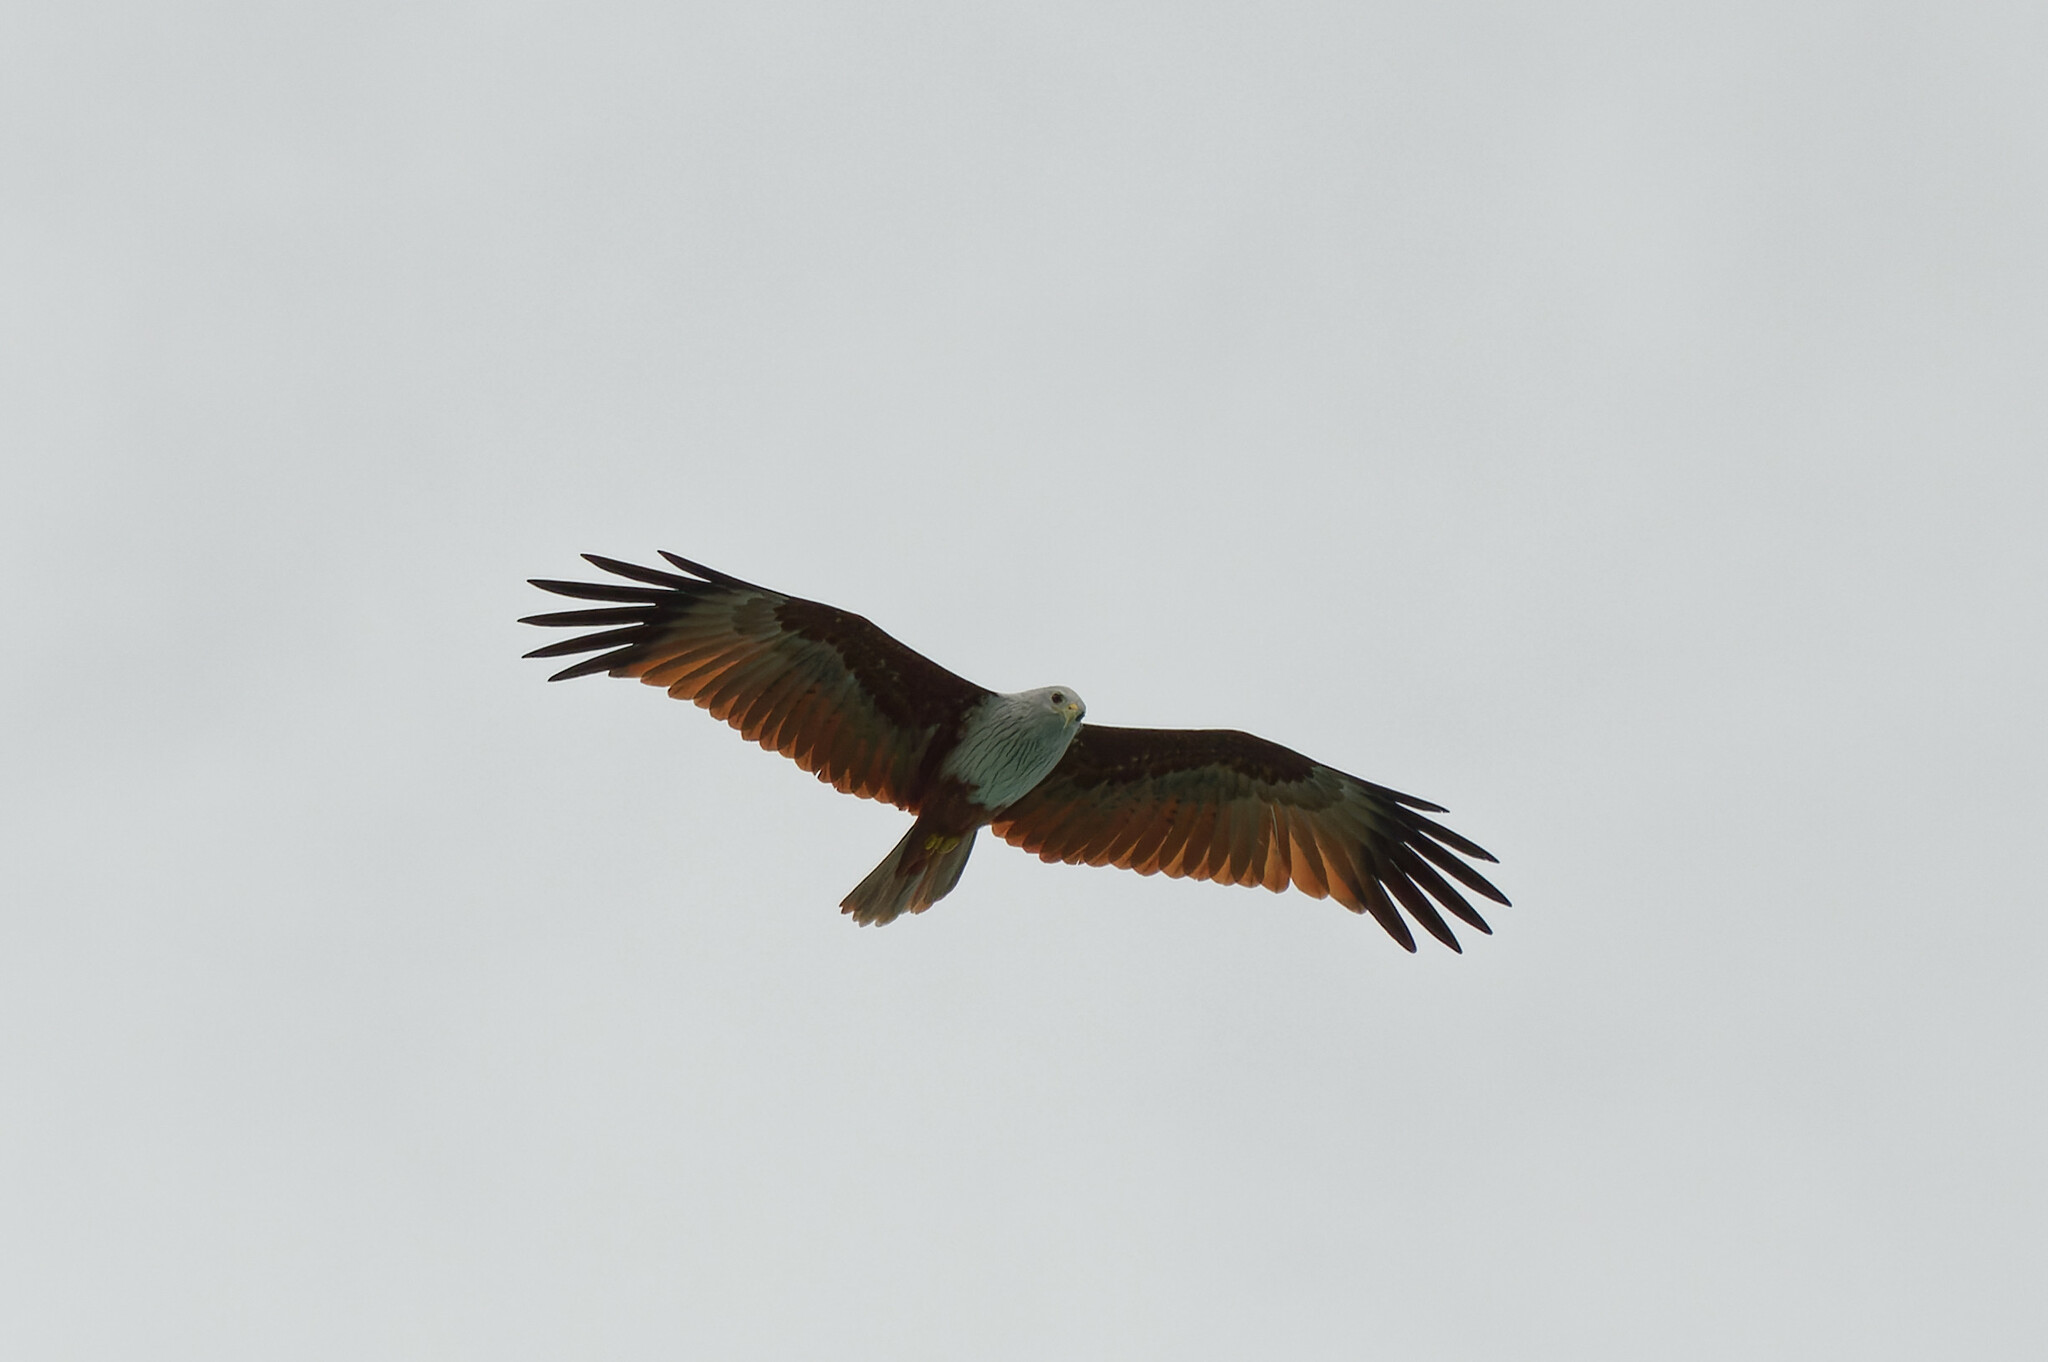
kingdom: Animalia
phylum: Chordata
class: Aves
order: Accipitriformes
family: Accipitridae
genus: Haliastur
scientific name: Haliastur indus
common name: Brahminy kite
